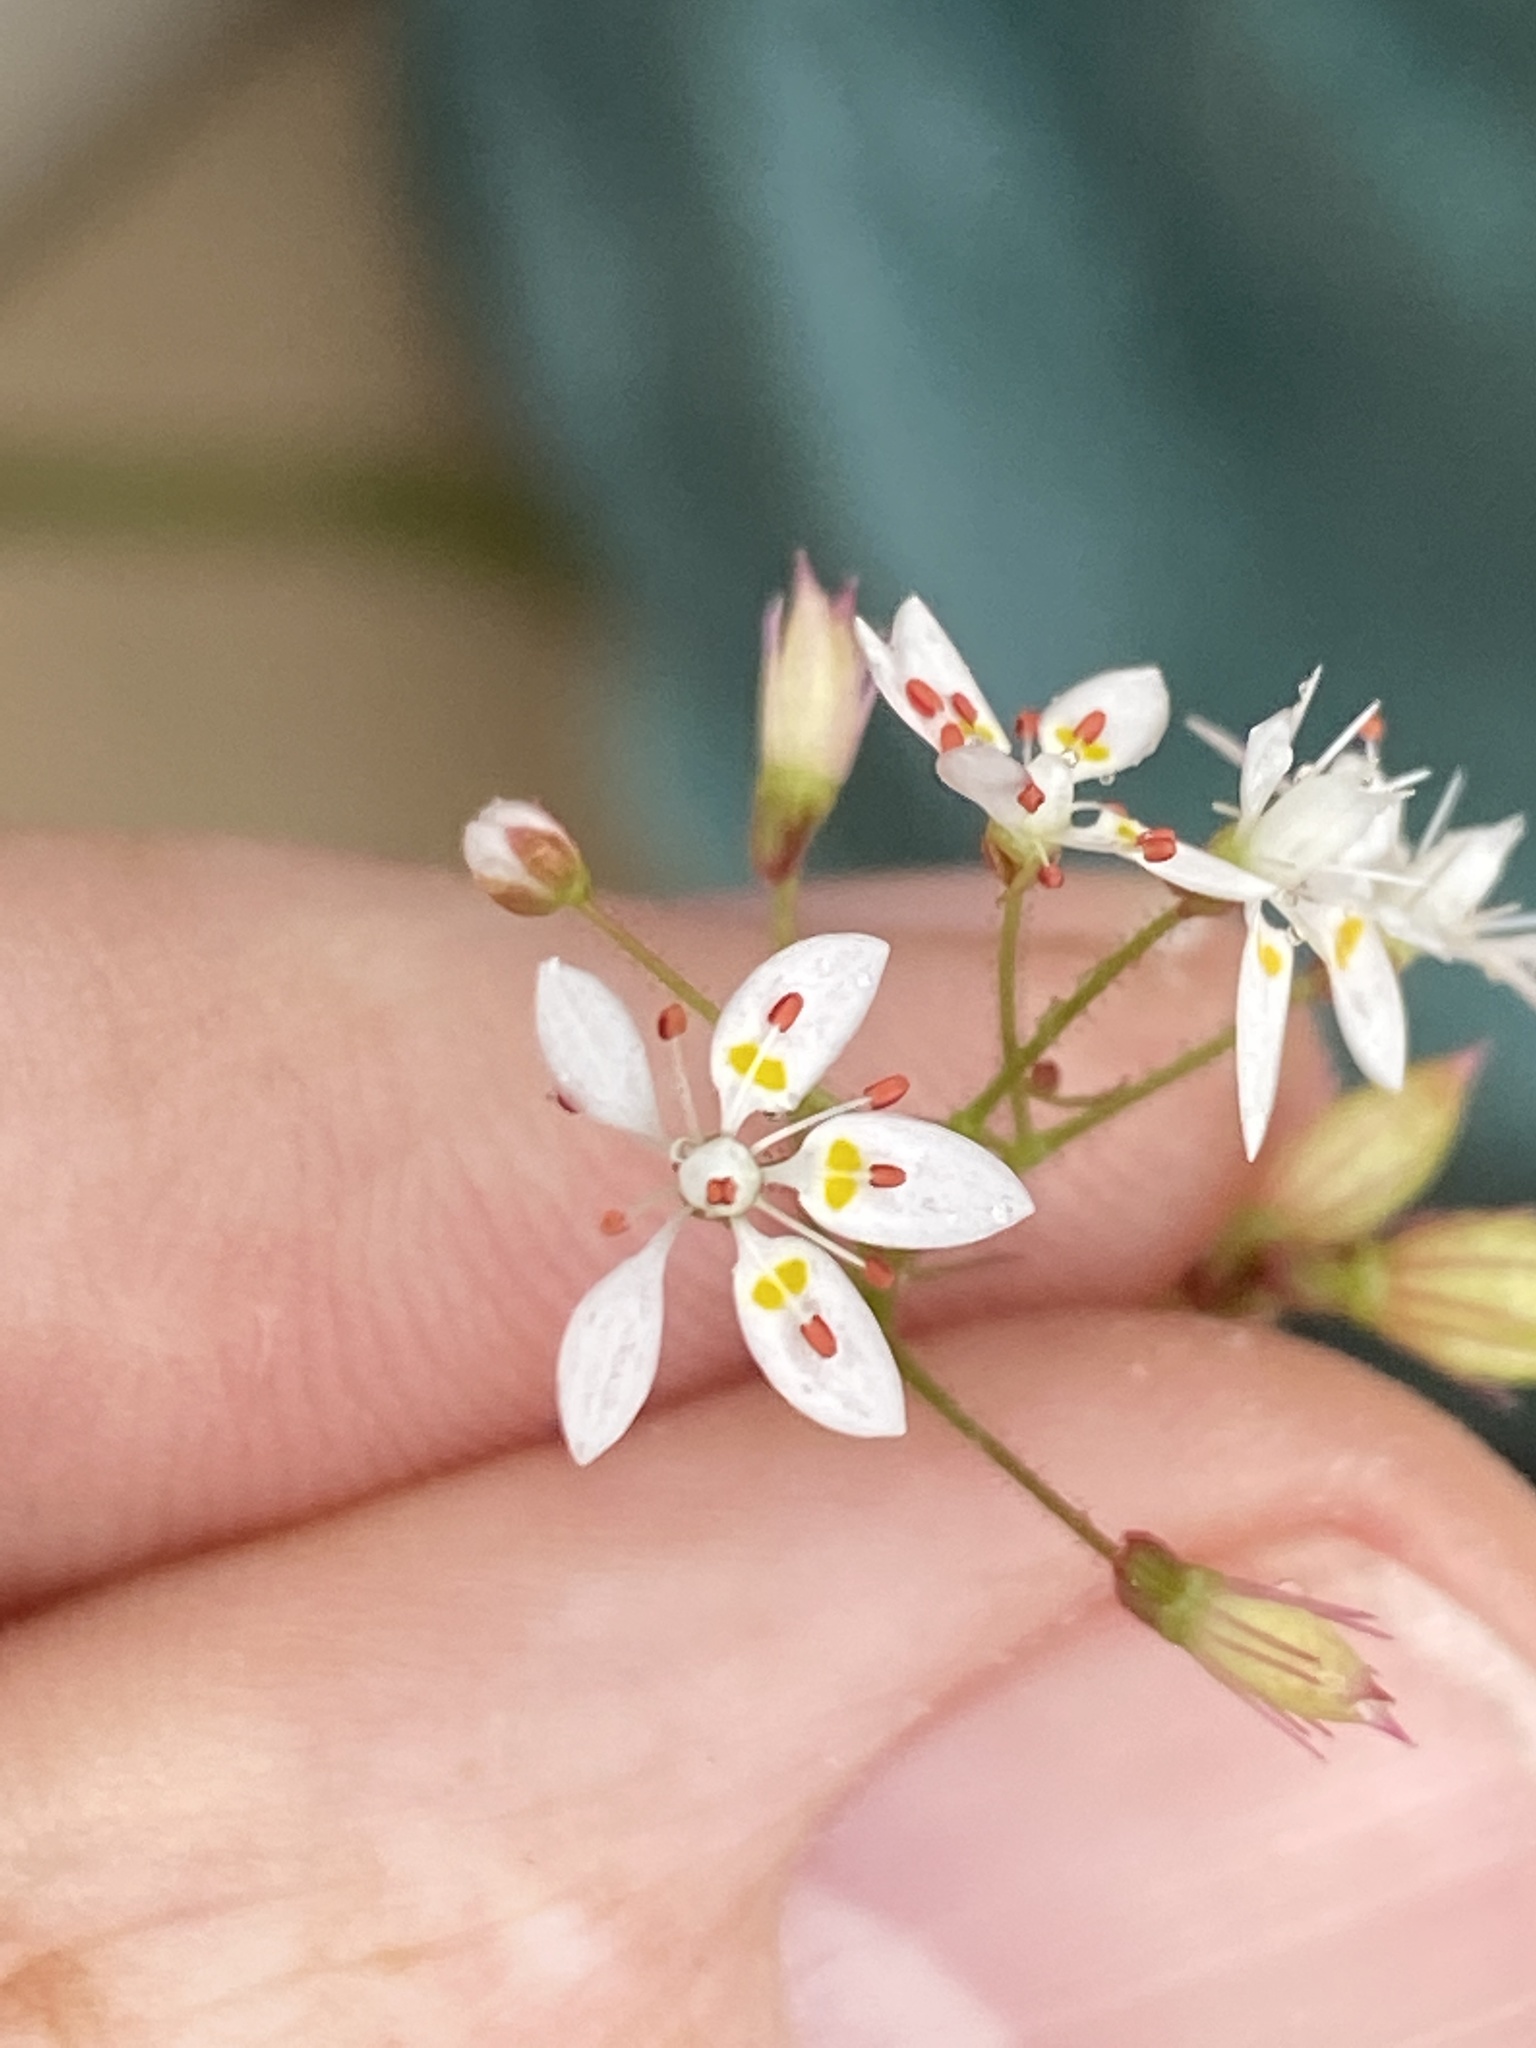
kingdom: Plantae
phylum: Tracheophyta
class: Magnoliopsida
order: Saxifragales
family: Saxifragaceae
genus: Micranthes
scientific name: Micranthes petiolaris
